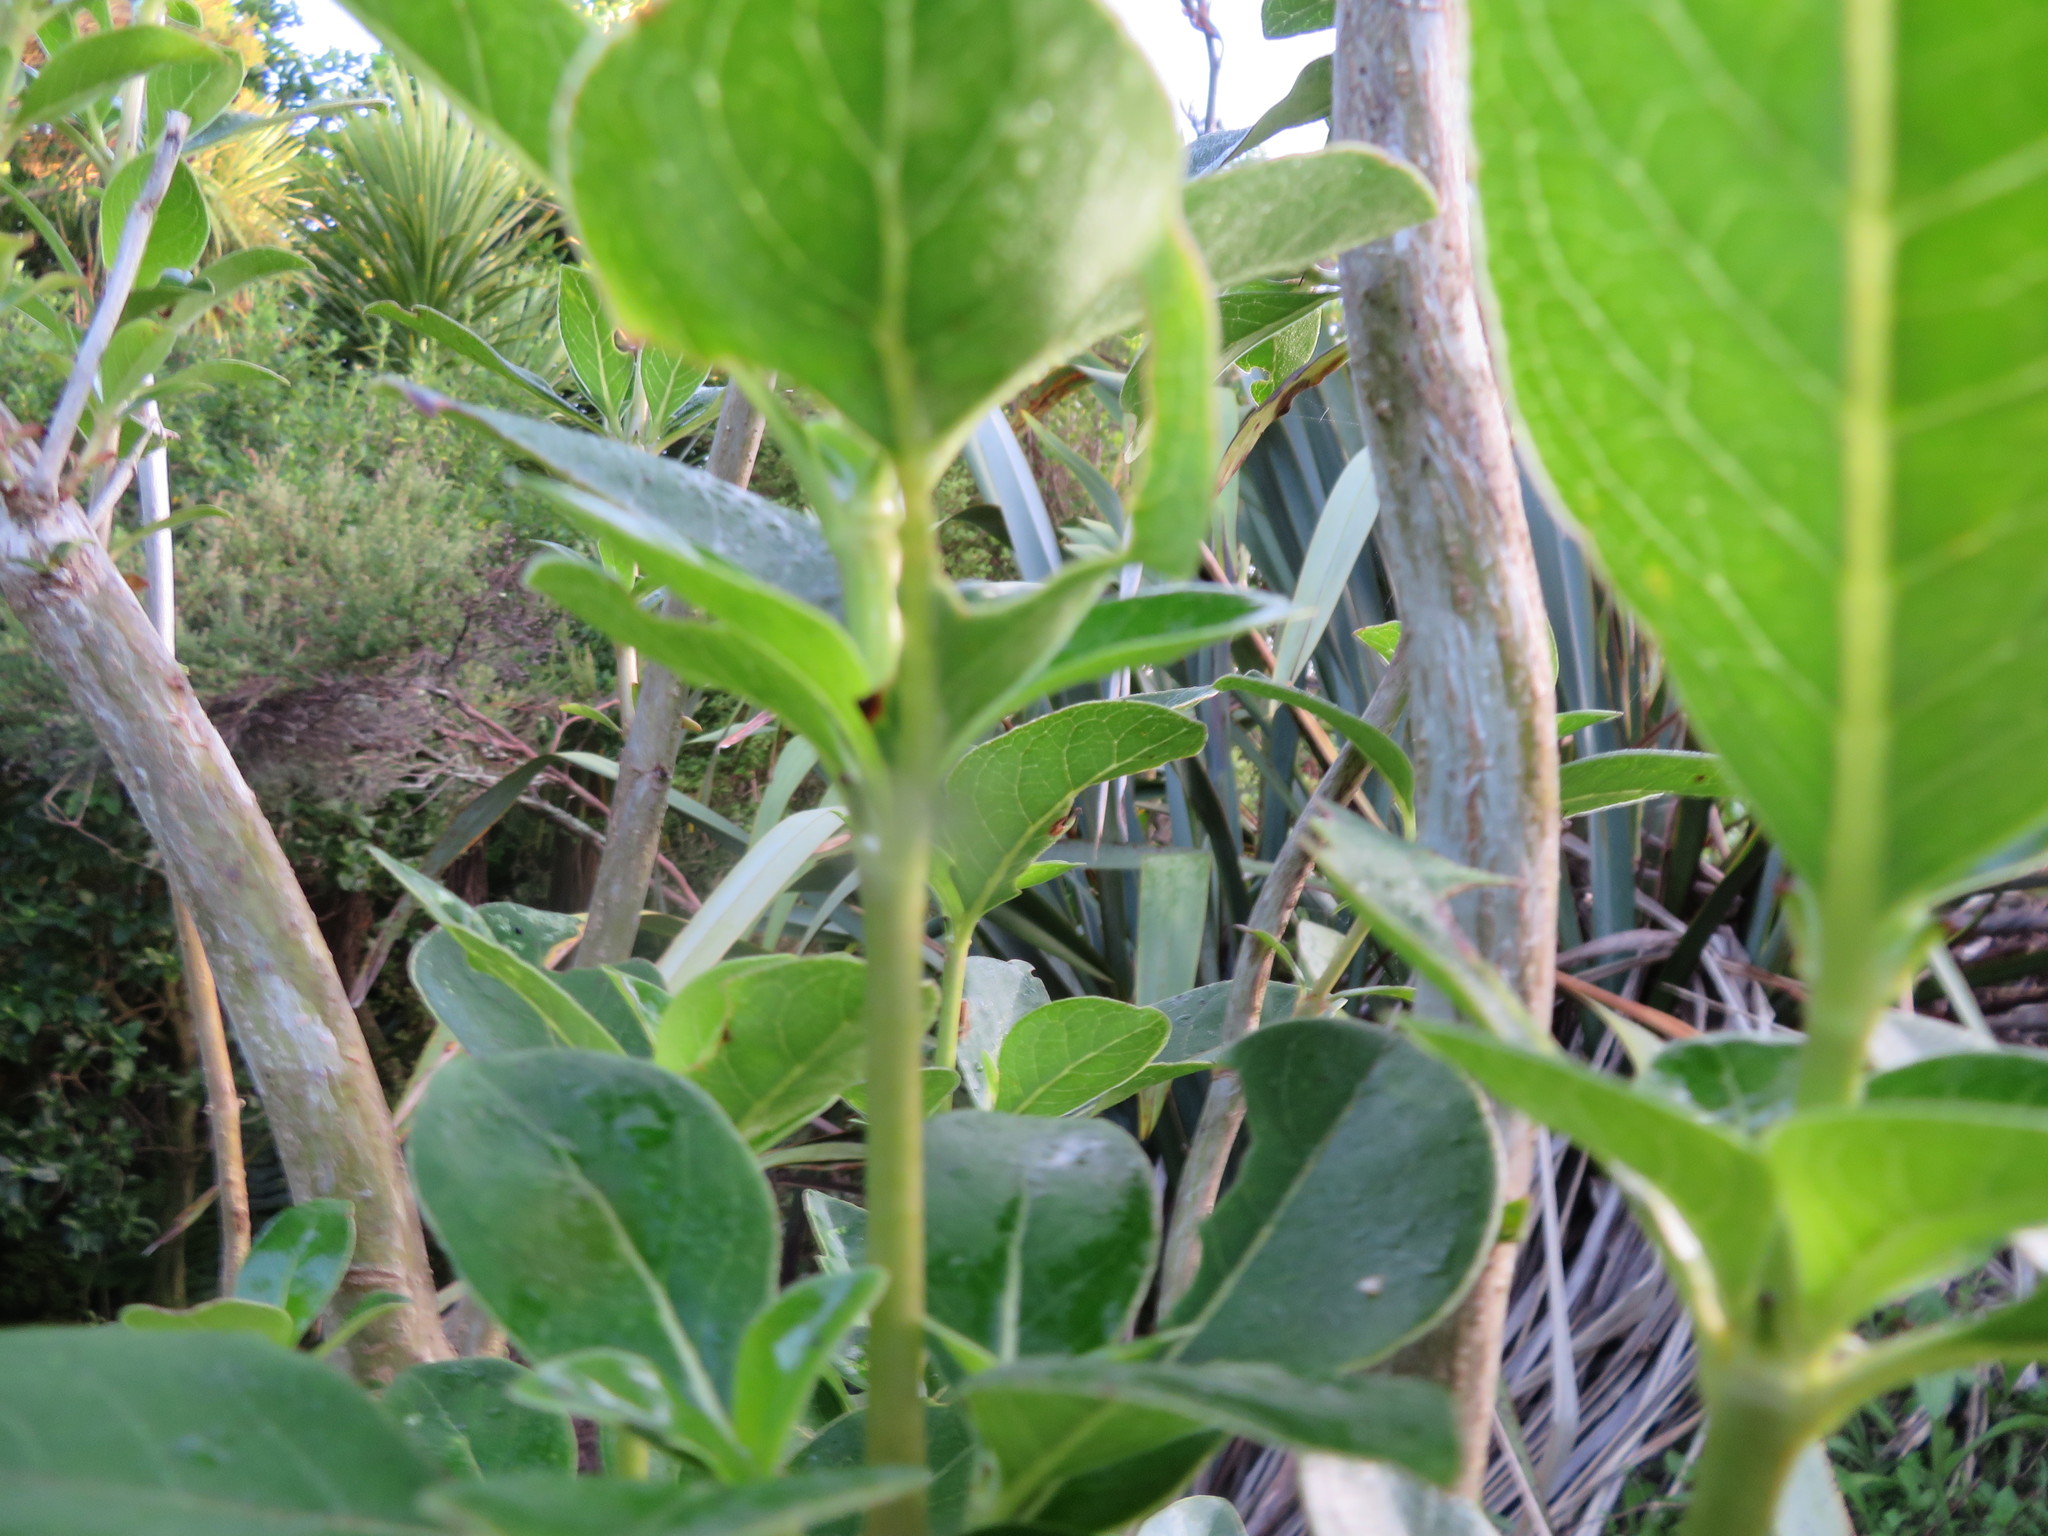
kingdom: Plantae
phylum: Tracheophyta
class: Magnoliopsida
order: Gentianales
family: Rubiaceae
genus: Coprosma
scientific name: Coprosma robusta
